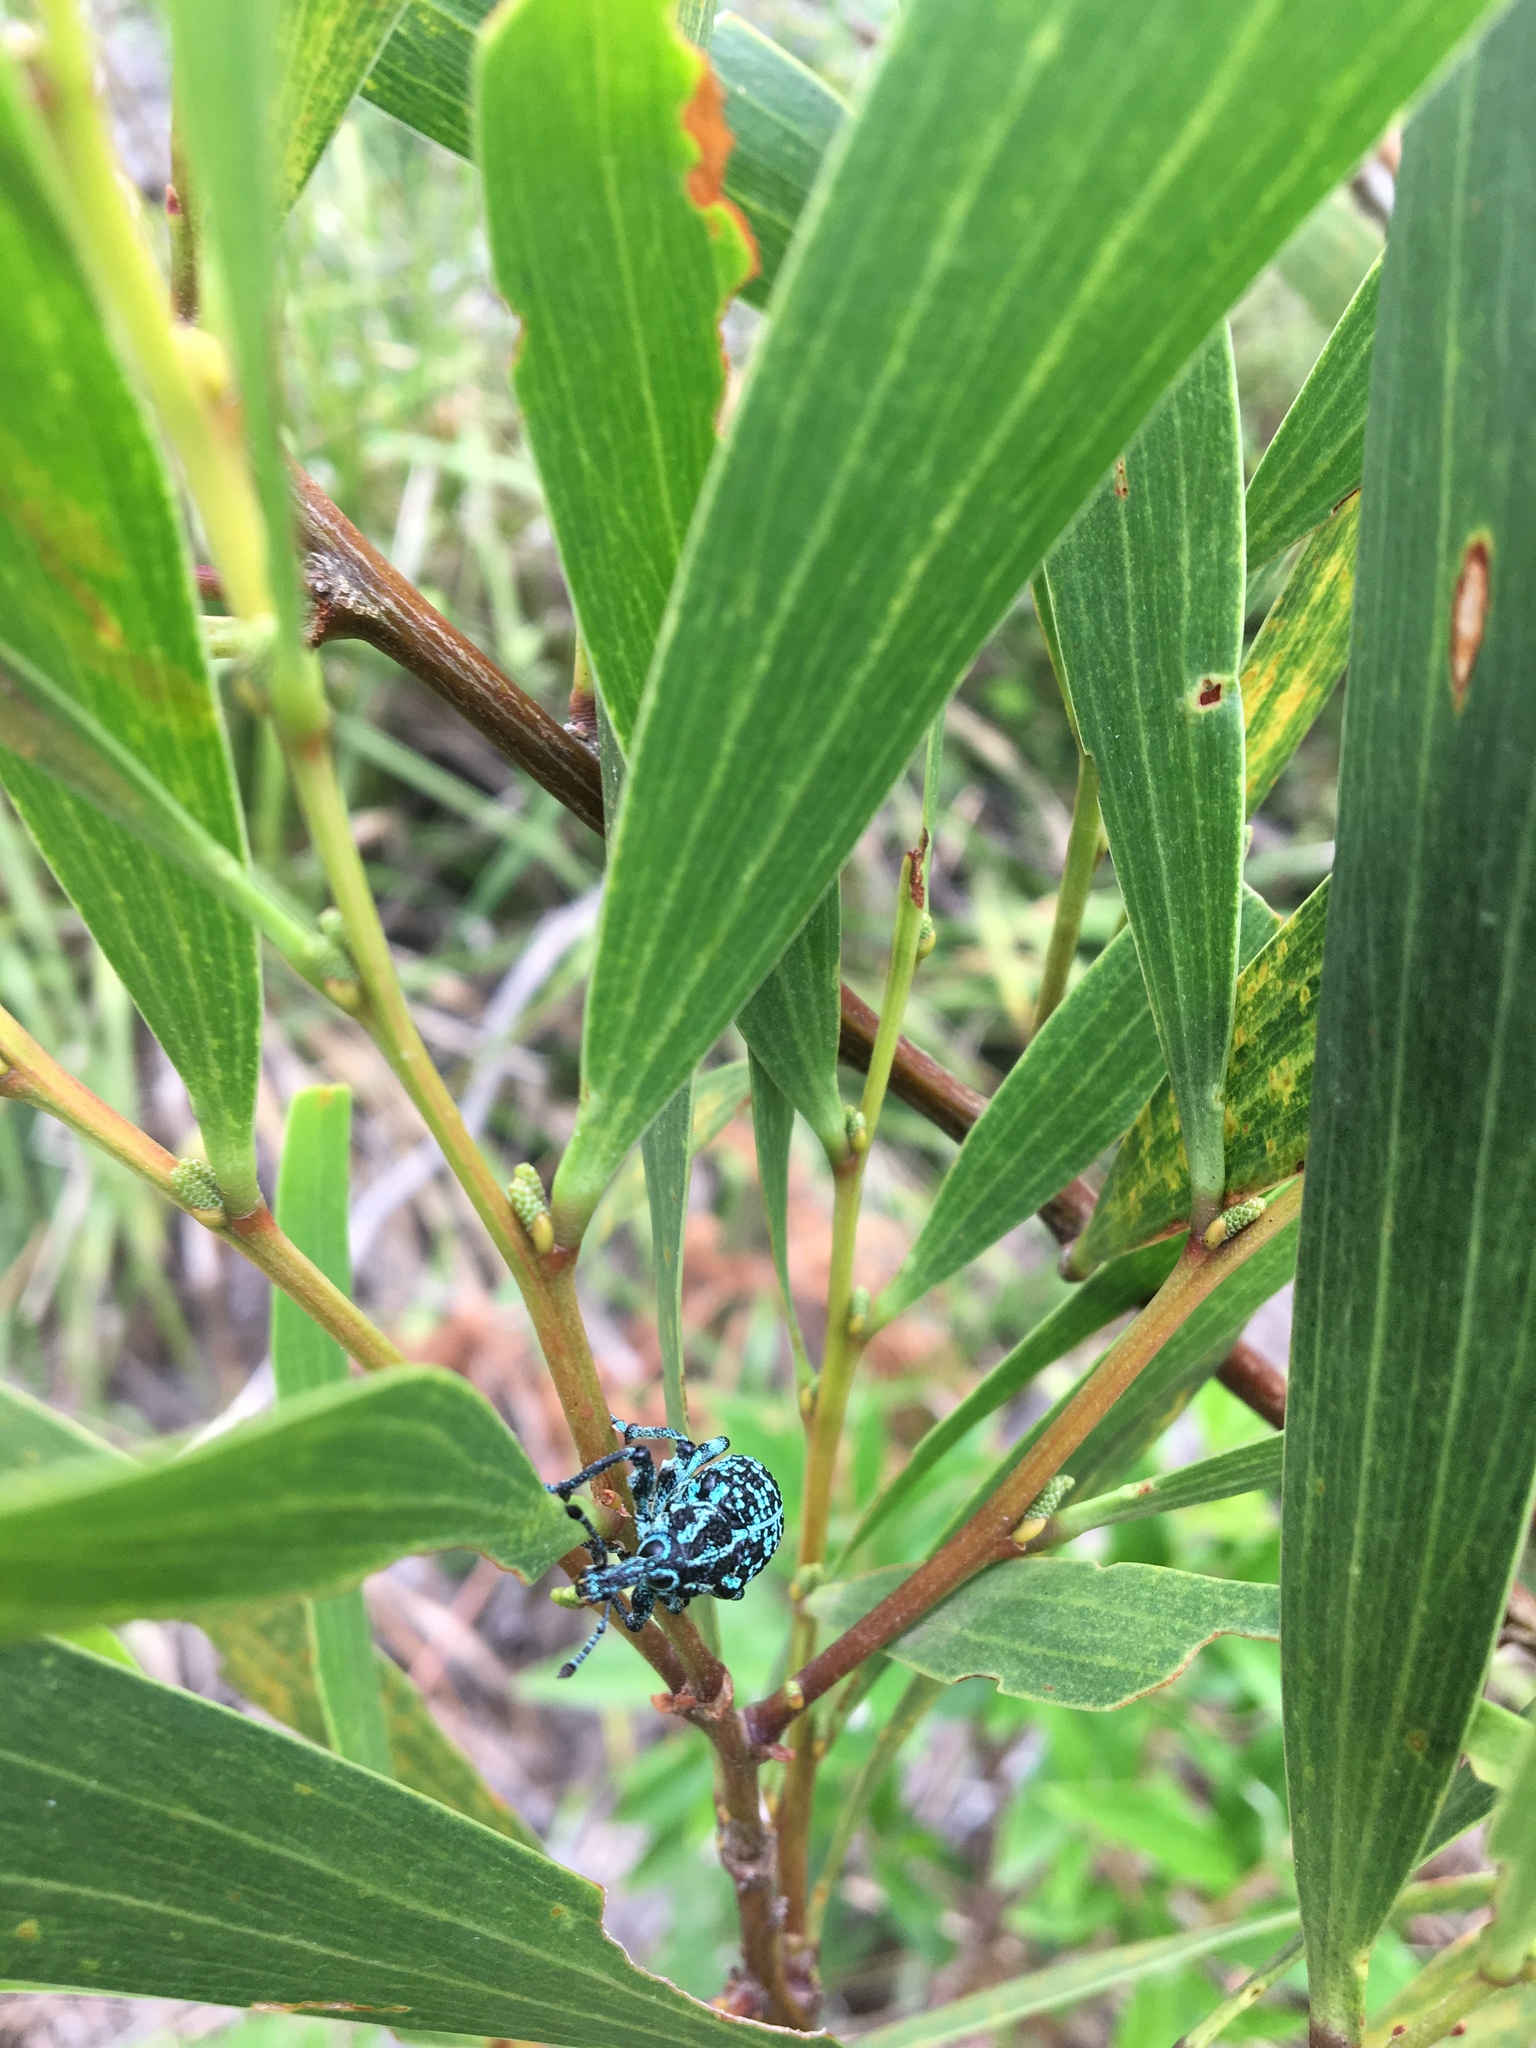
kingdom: Animalia
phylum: Arthropoda
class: Insecta
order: Coleoptera
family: Curculionidae
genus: Chrysolopus
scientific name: Chrysolopus spectabilis
